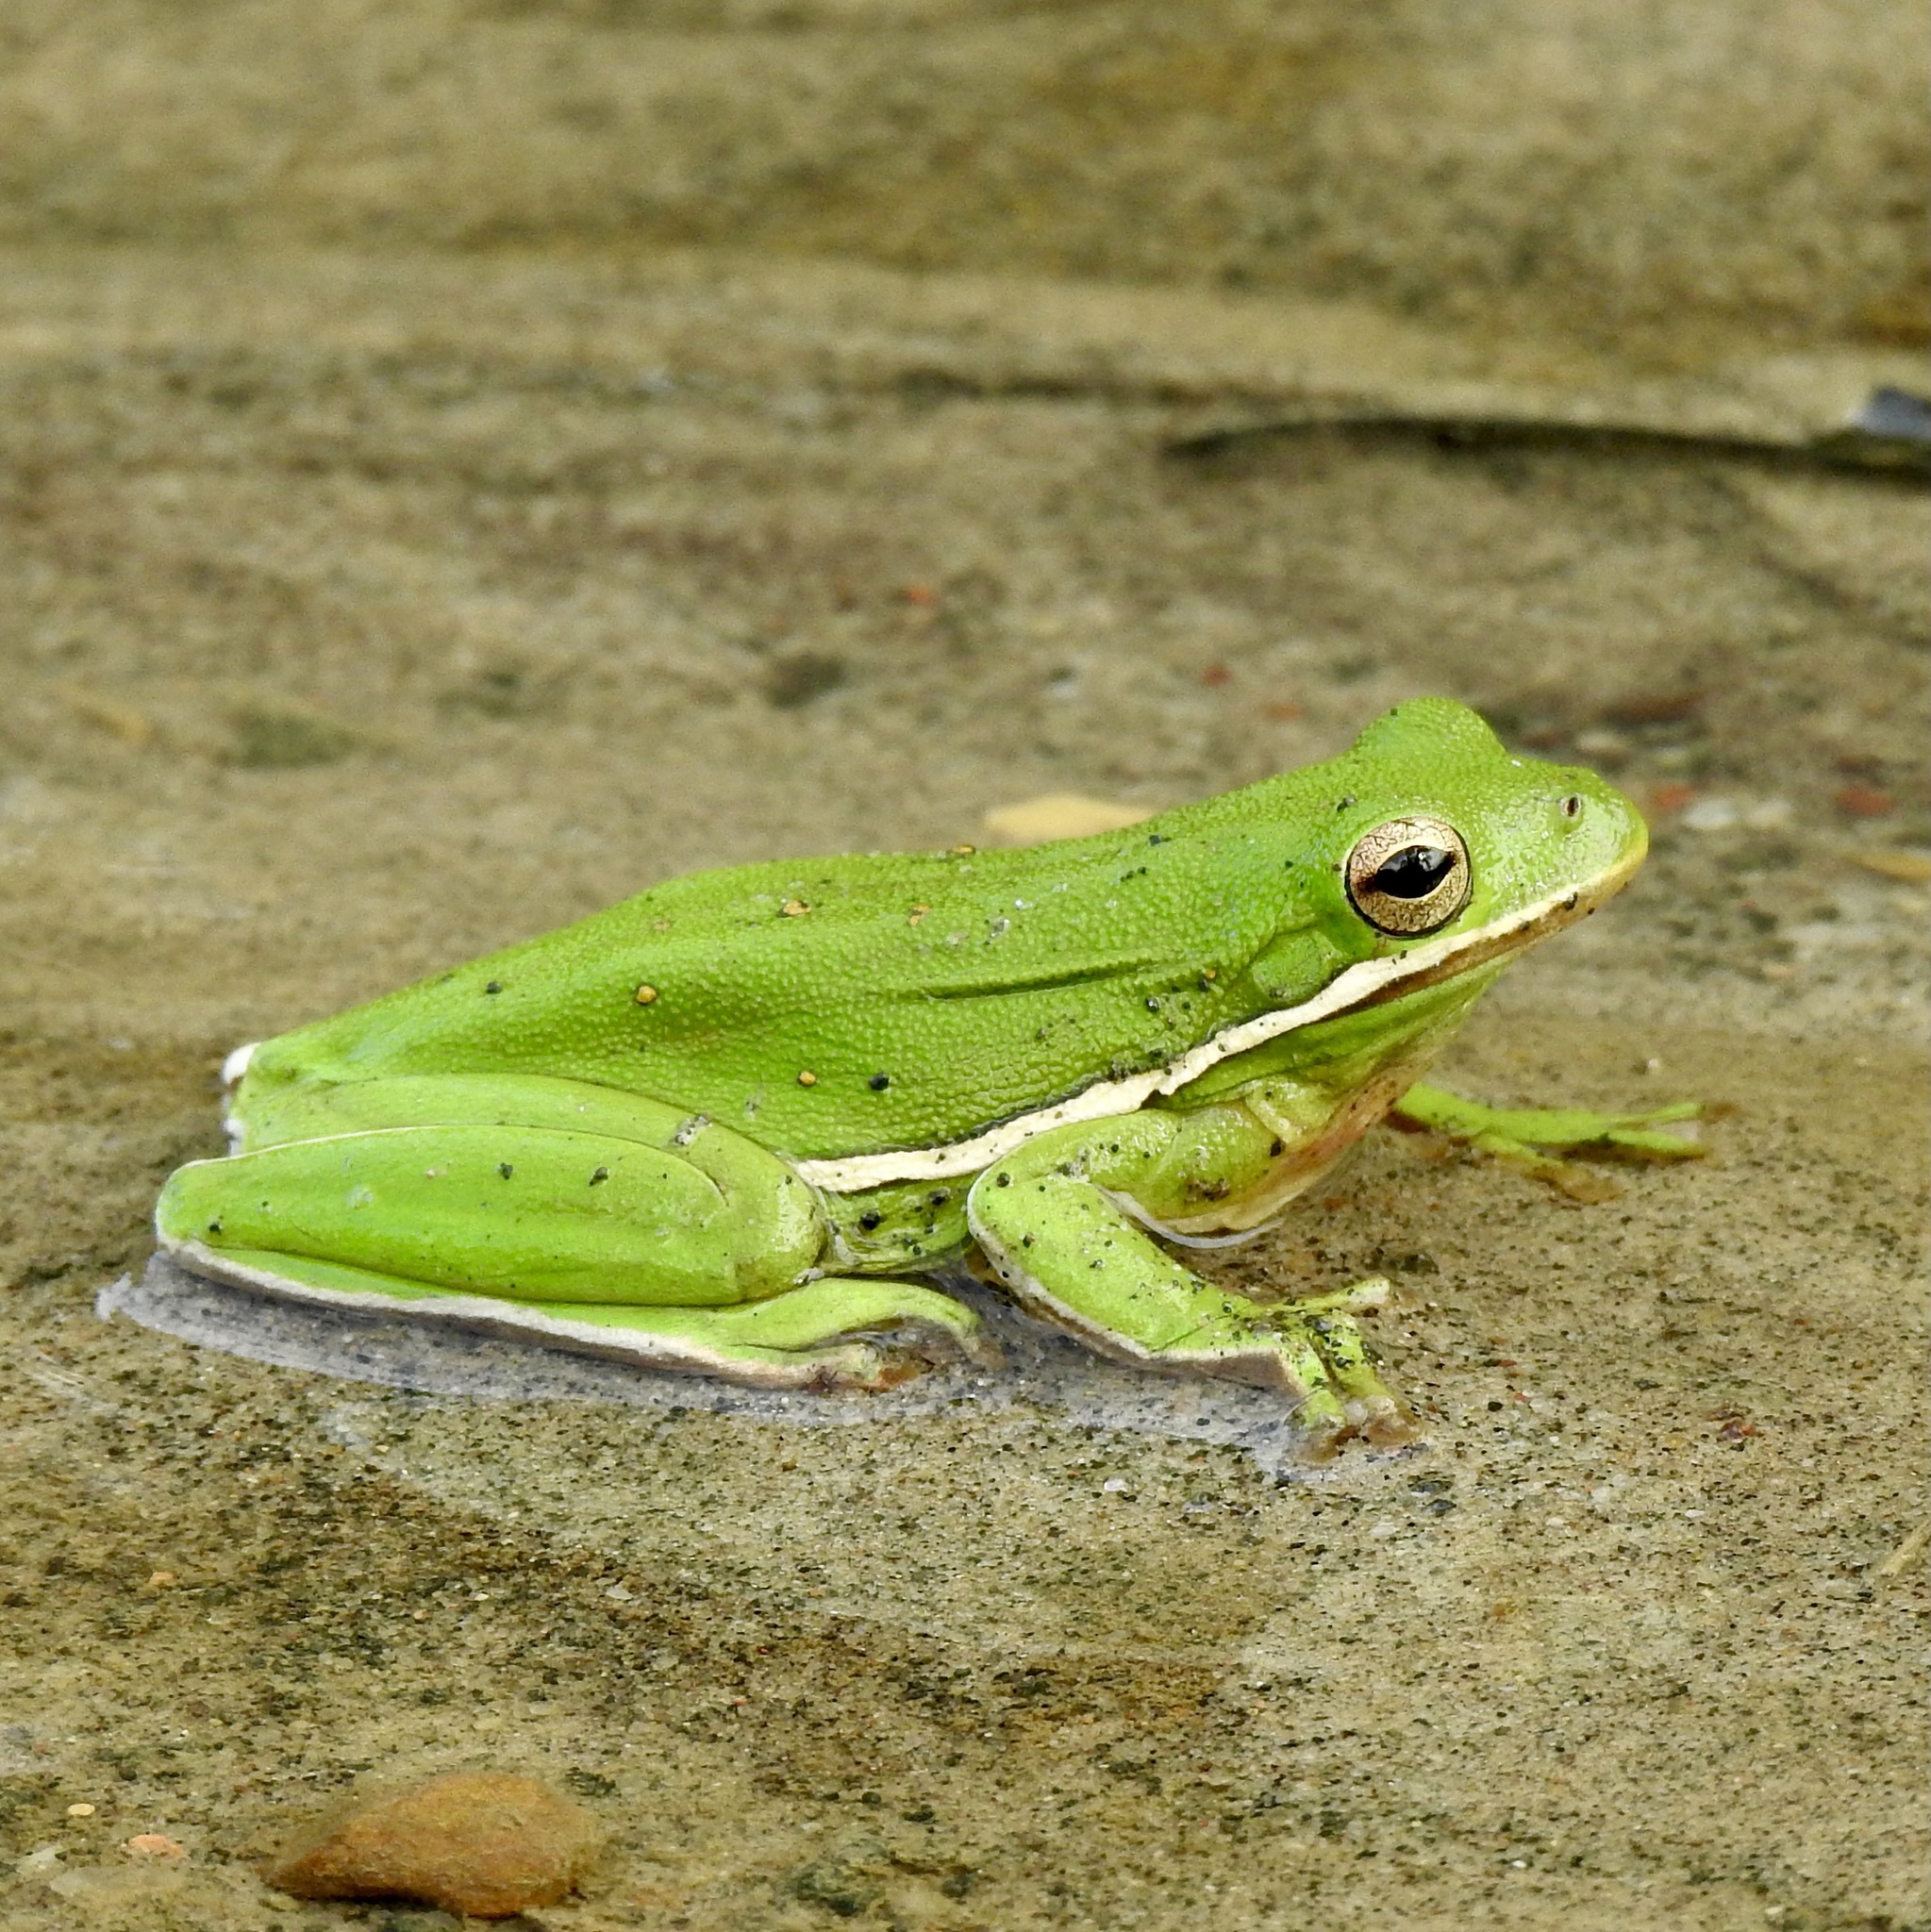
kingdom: Animalia
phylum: Chordata
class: Amphibia
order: Anura
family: Hylidae
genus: Dryophytes
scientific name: Dryophytes cinereus
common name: Green treefrog
